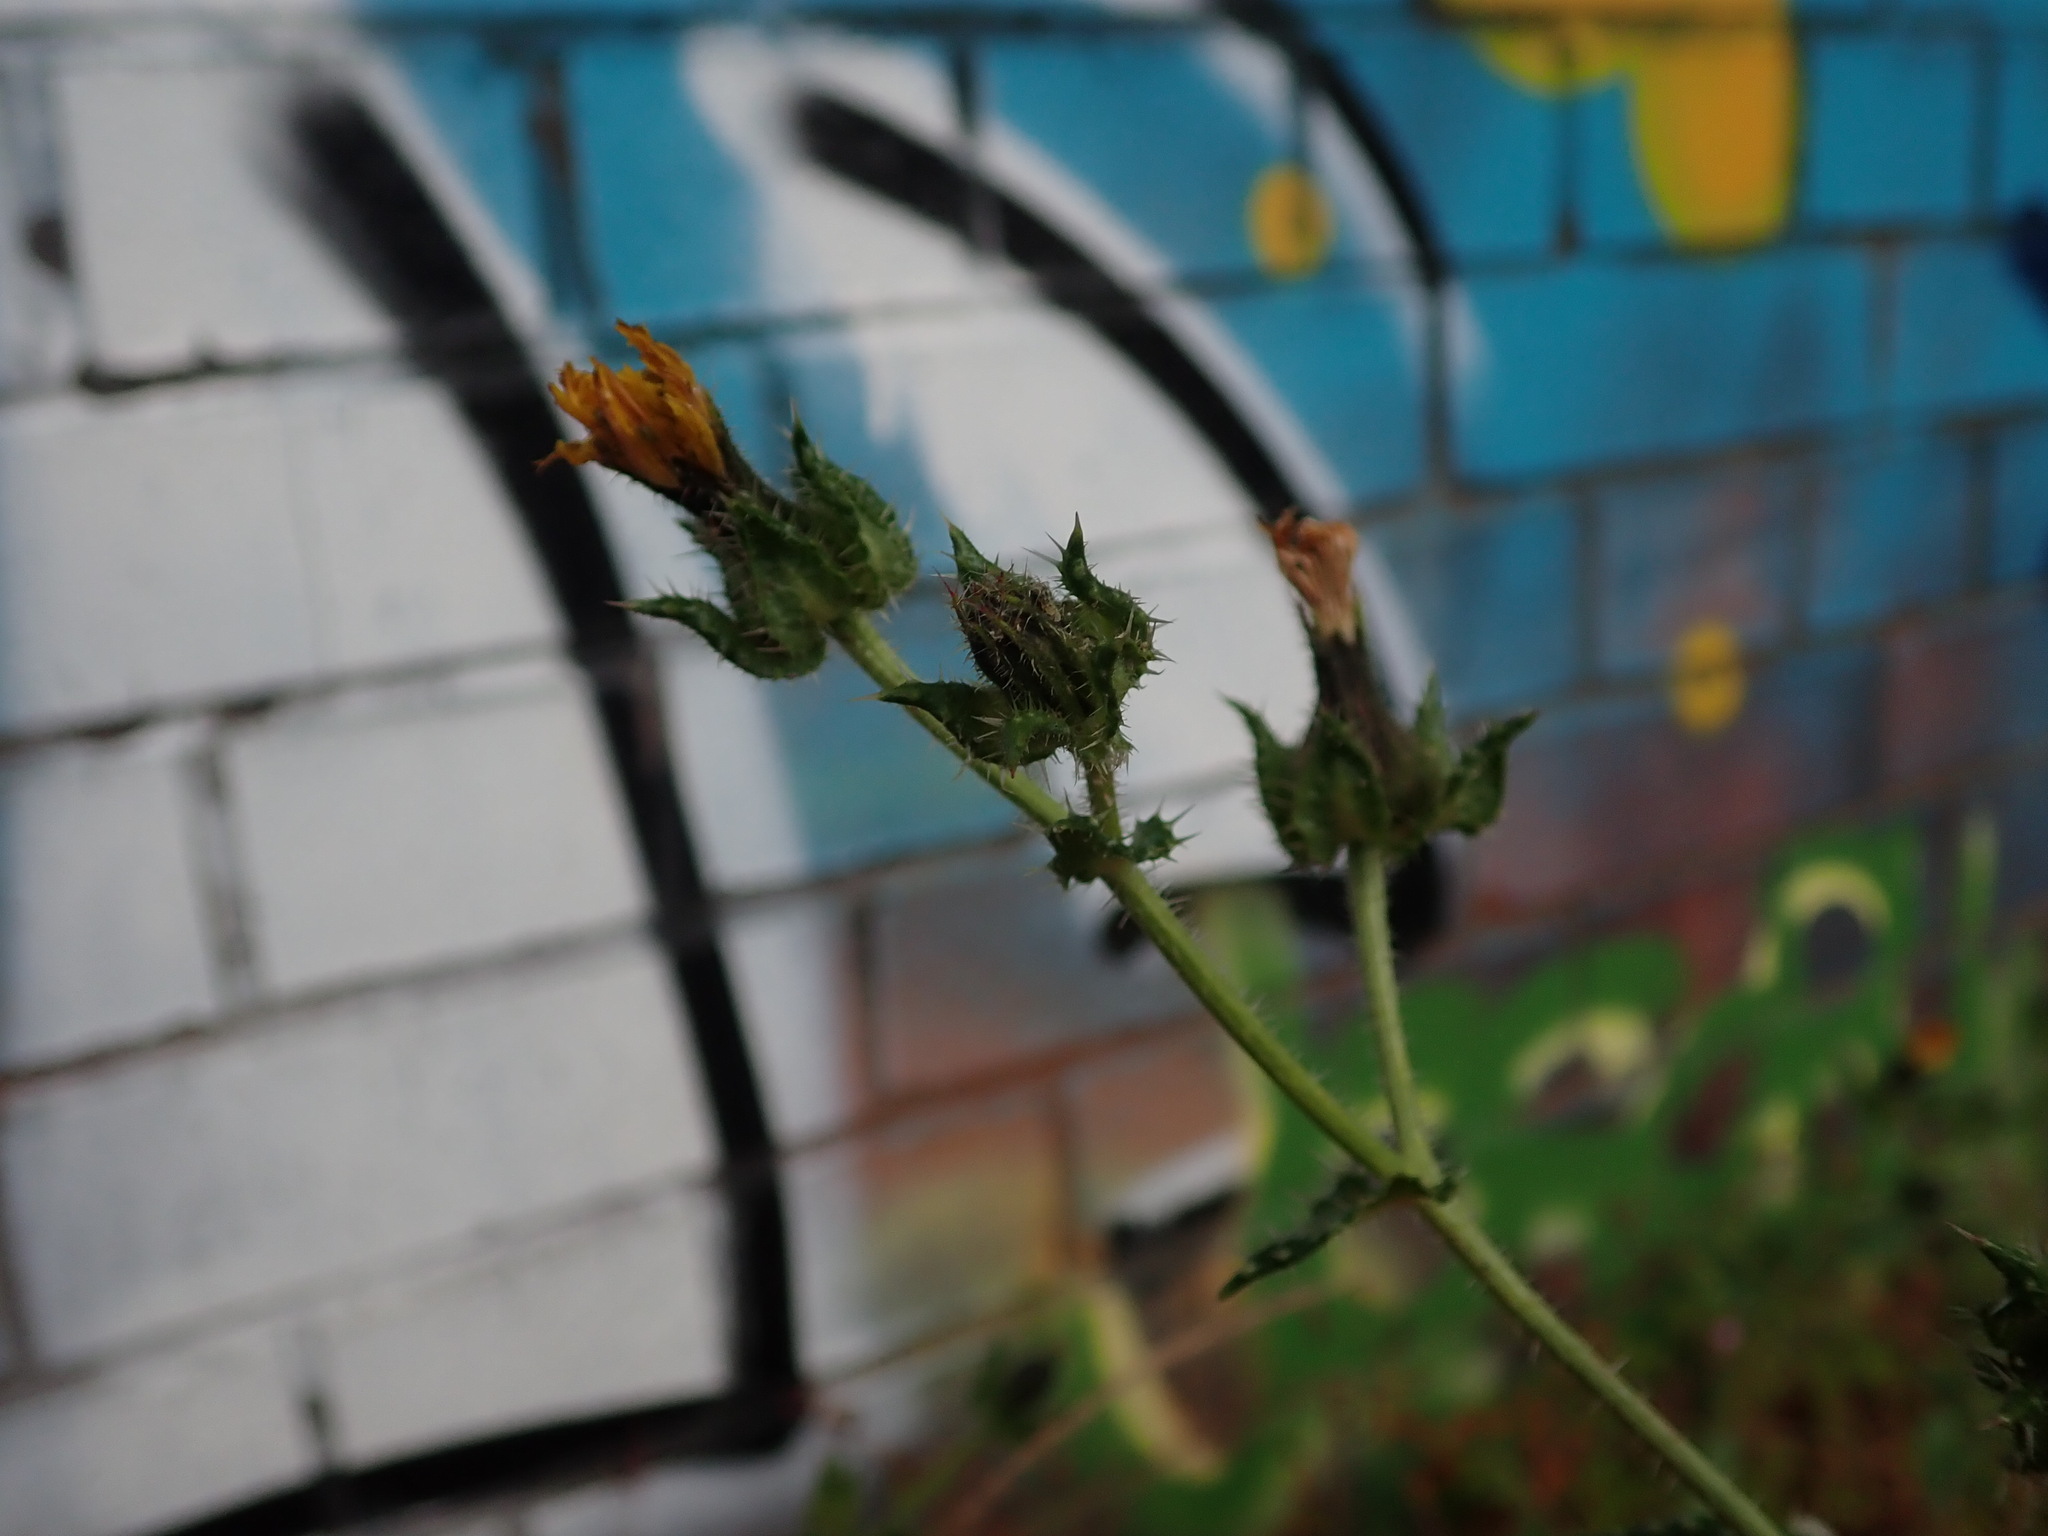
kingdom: Plantae
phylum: Tracheophyta
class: Magnoliopsida
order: Asterales
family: Asteraceae
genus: Helminthotheca
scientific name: Helminthotheca echioides
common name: Ox-tongue
